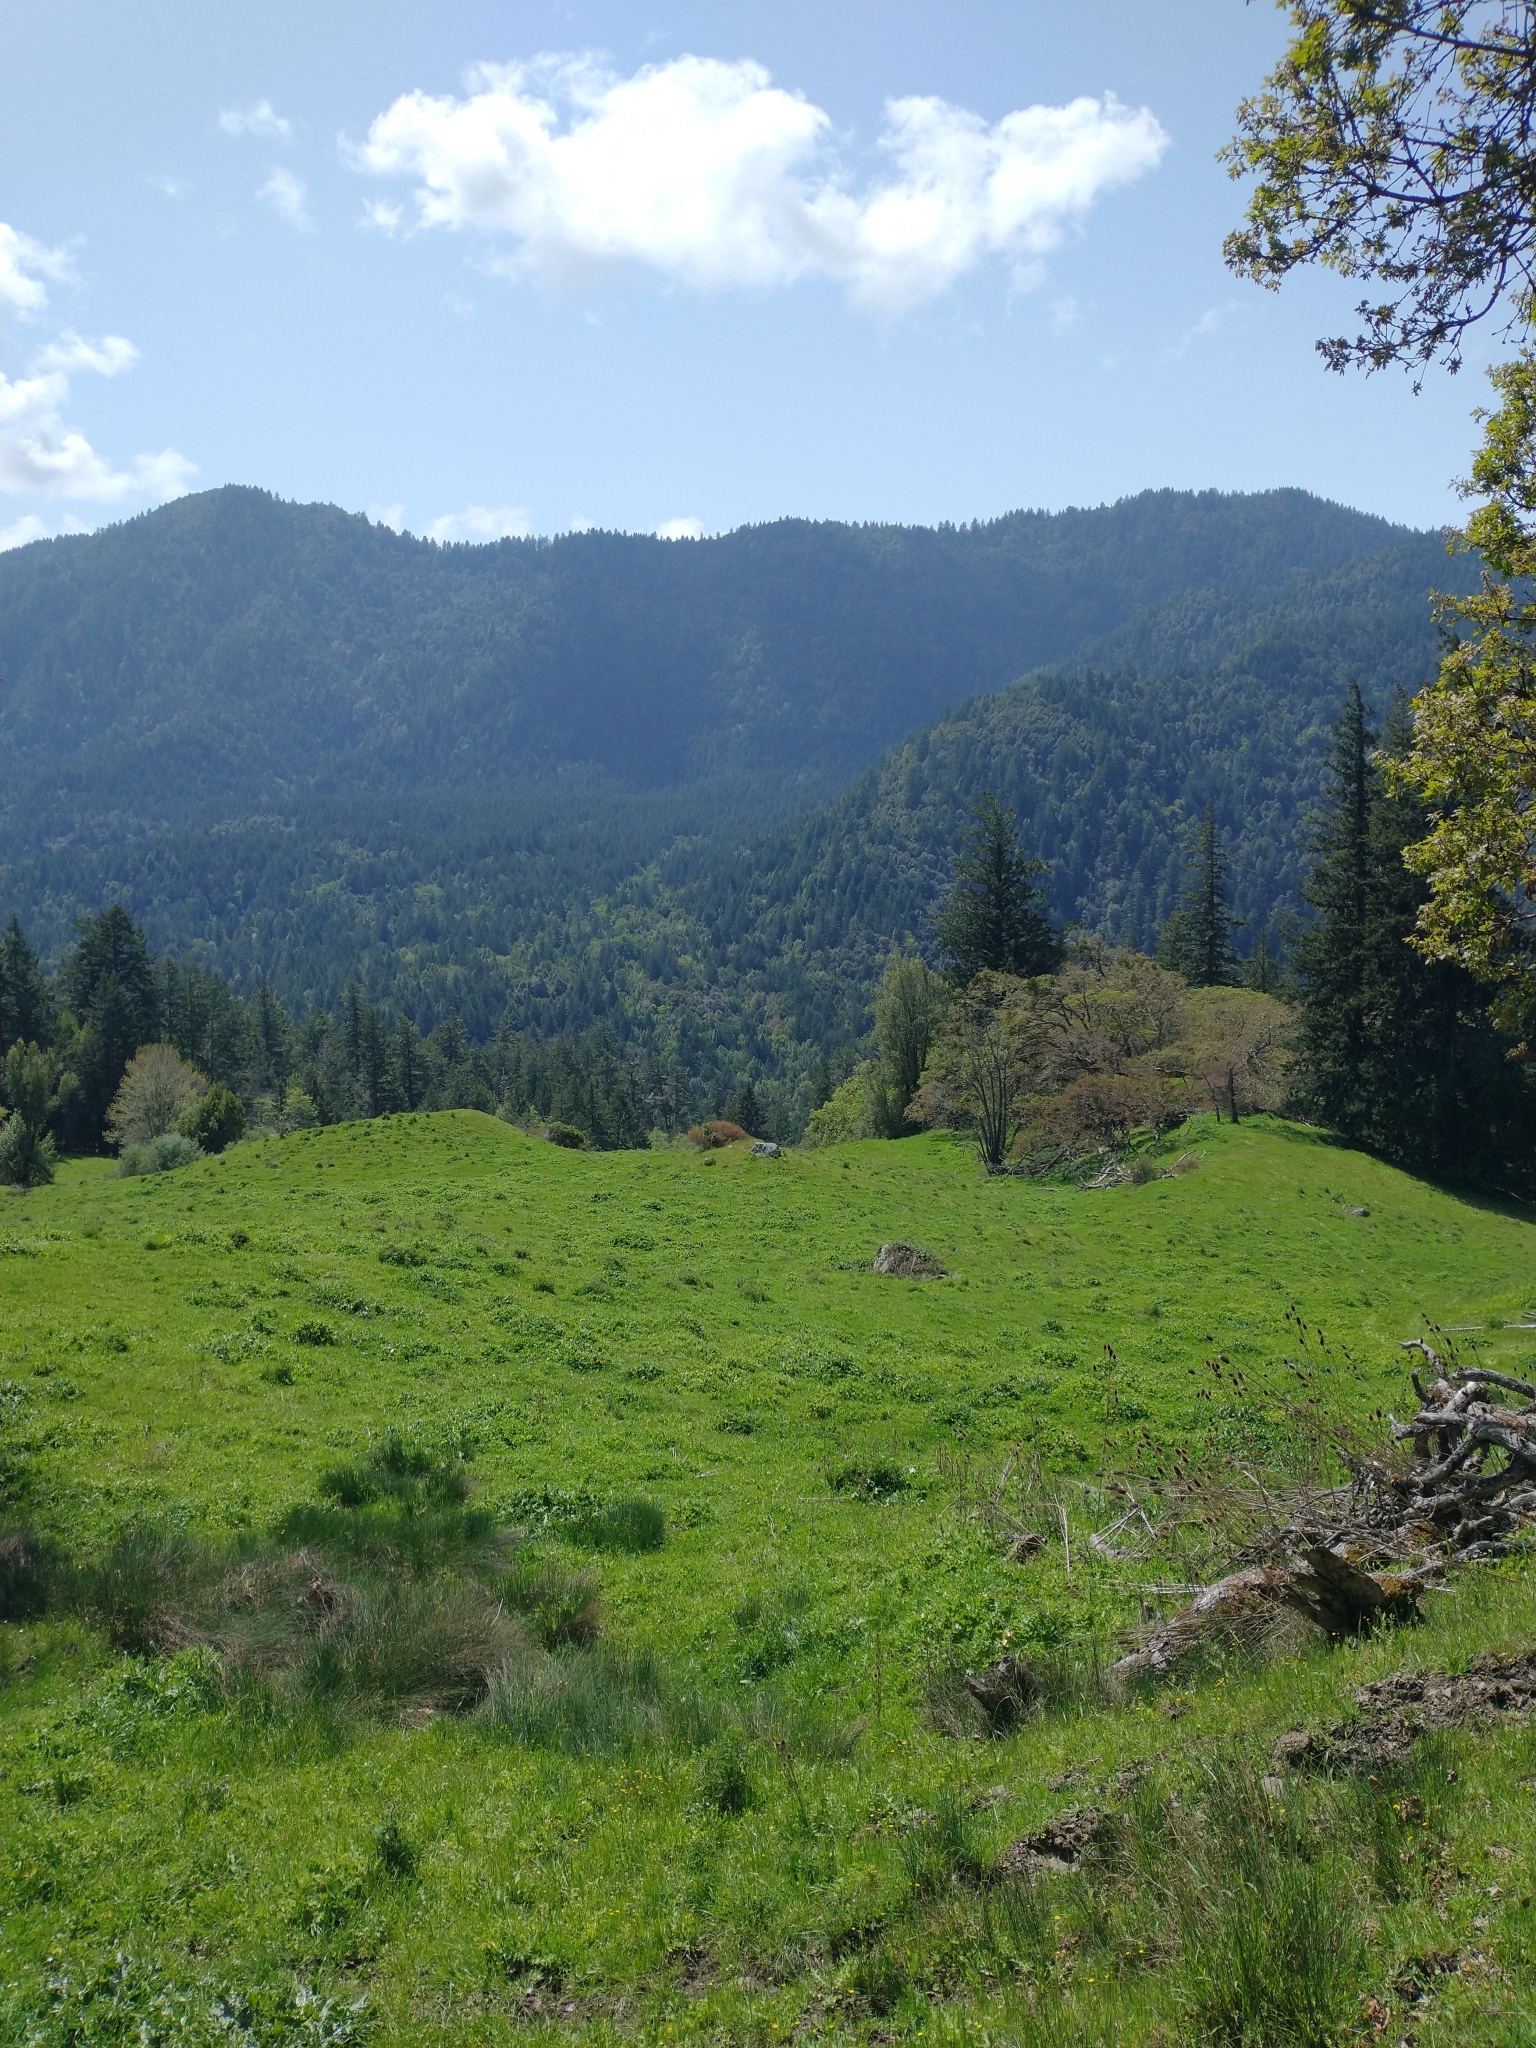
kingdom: Plantae
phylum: Tracheophyta
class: Magnoliopsida
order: Fagales
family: Fagaceae
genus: Quercus
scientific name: Quercus garryana
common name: Garry oak
